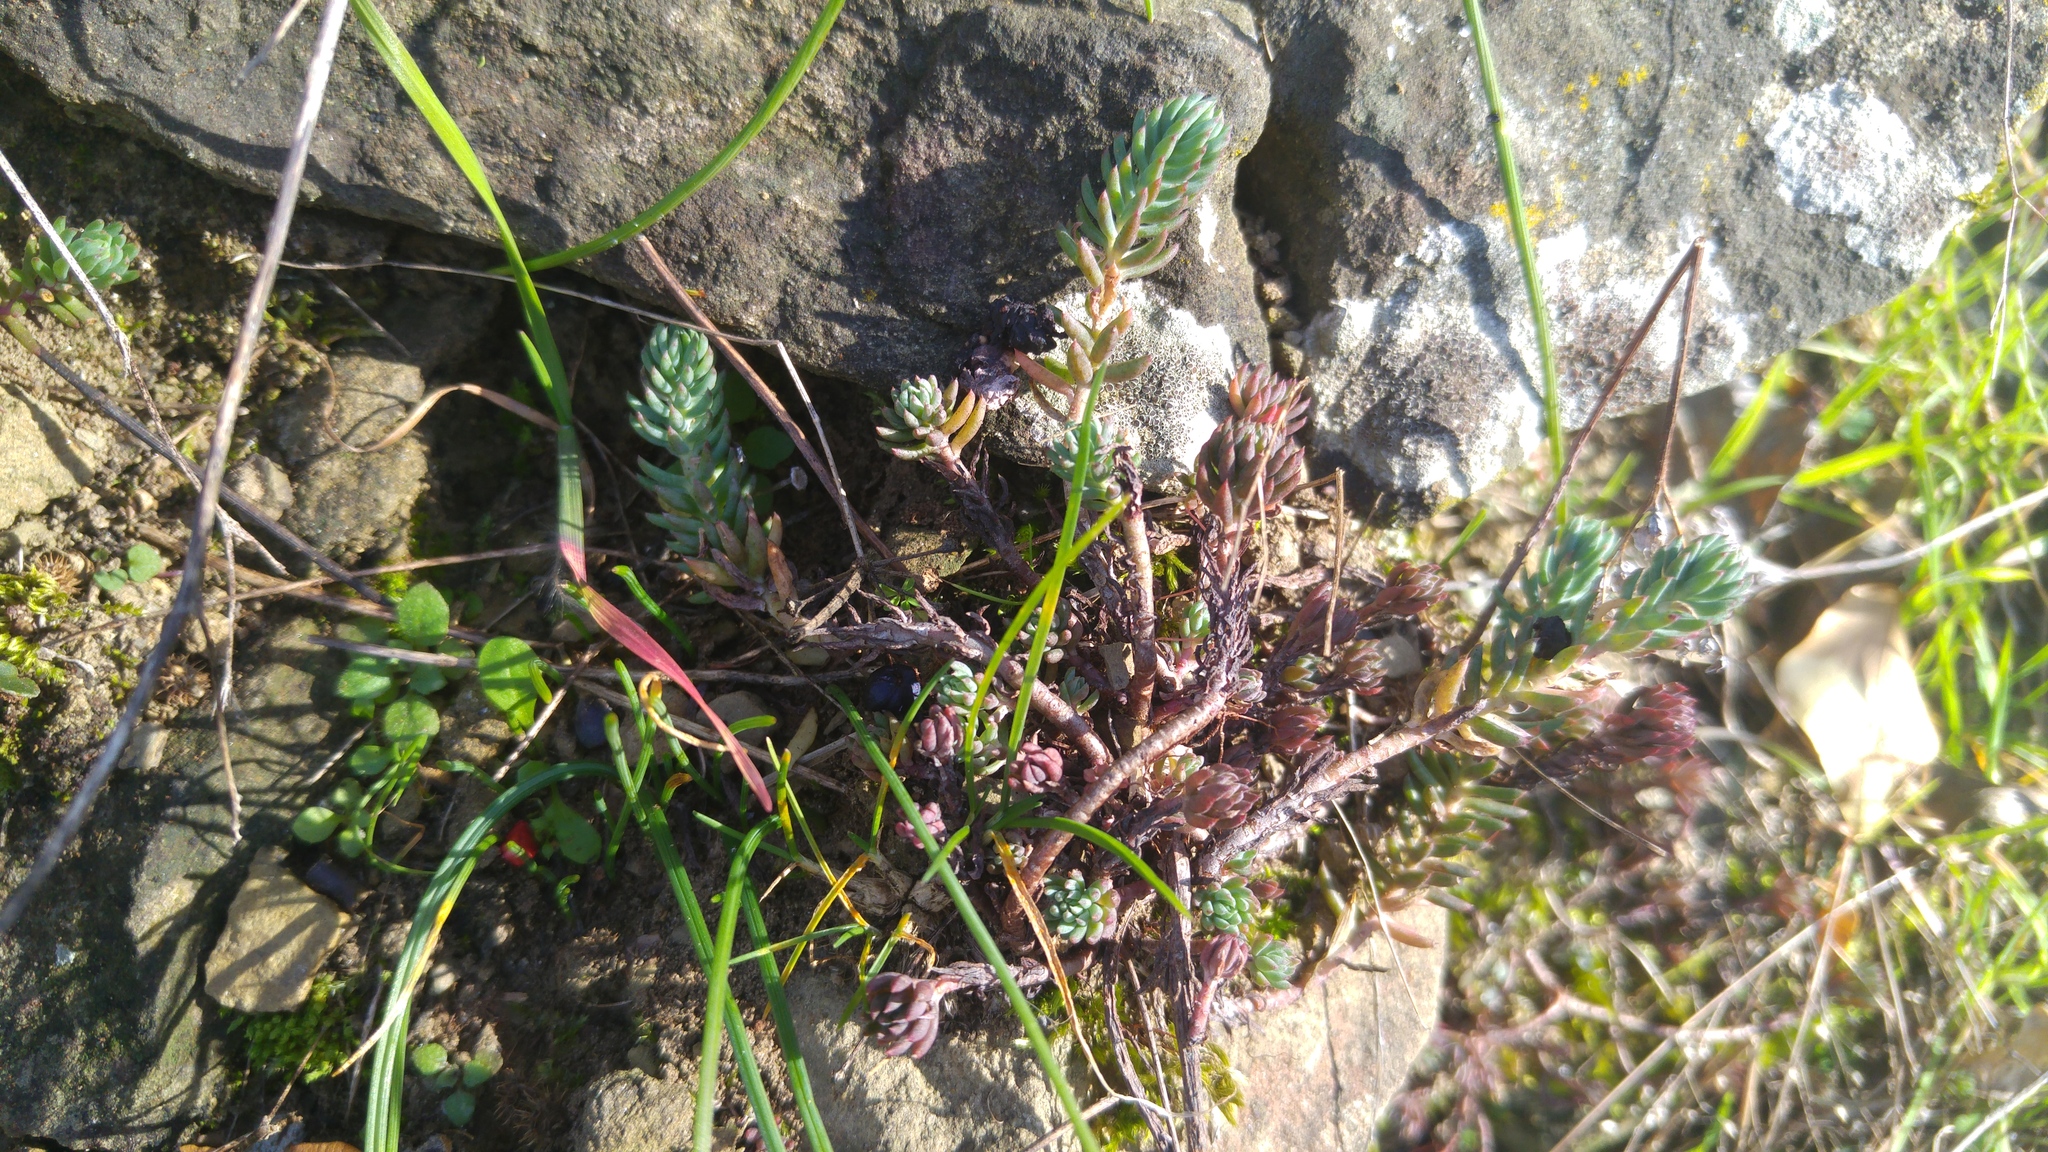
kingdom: Plantae
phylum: Tracheophyta
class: Magnoliopsida
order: Saxifragales
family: Crassulaceae
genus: Petrosedum
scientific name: Petrosedum rupestre
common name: Jenny's stonecrop
